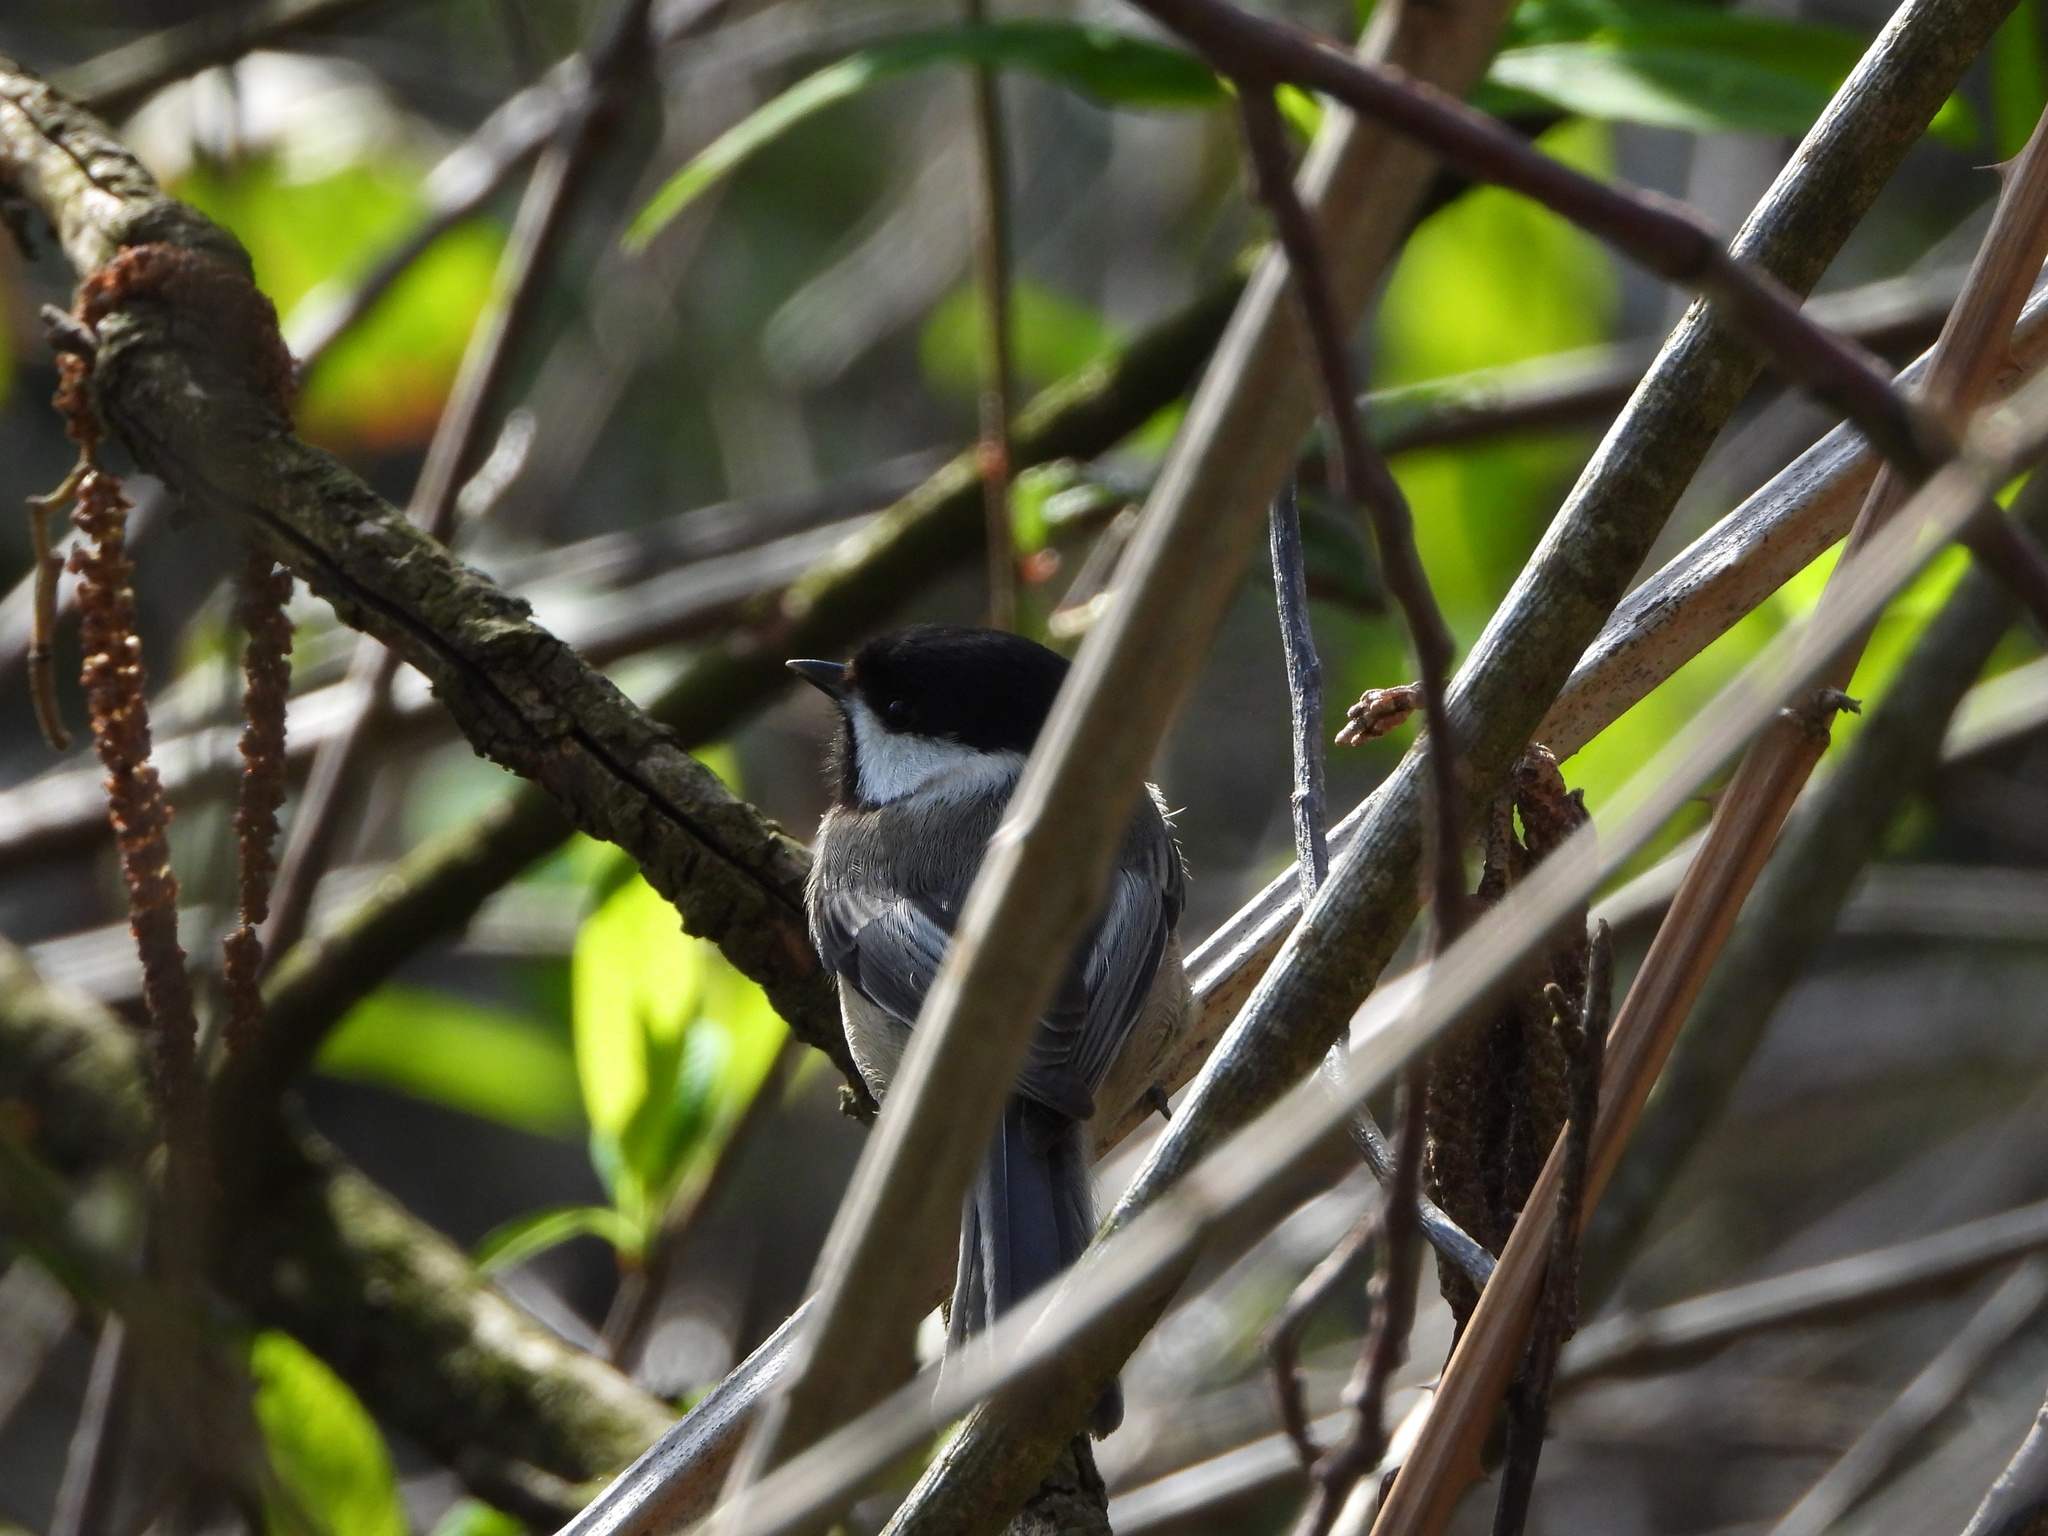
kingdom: Animalia
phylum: Chordata
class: Aves
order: Passeriformes
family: Paridae
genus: Poecile
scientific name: Poecile atricapillus
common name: Black-capped chickadee
